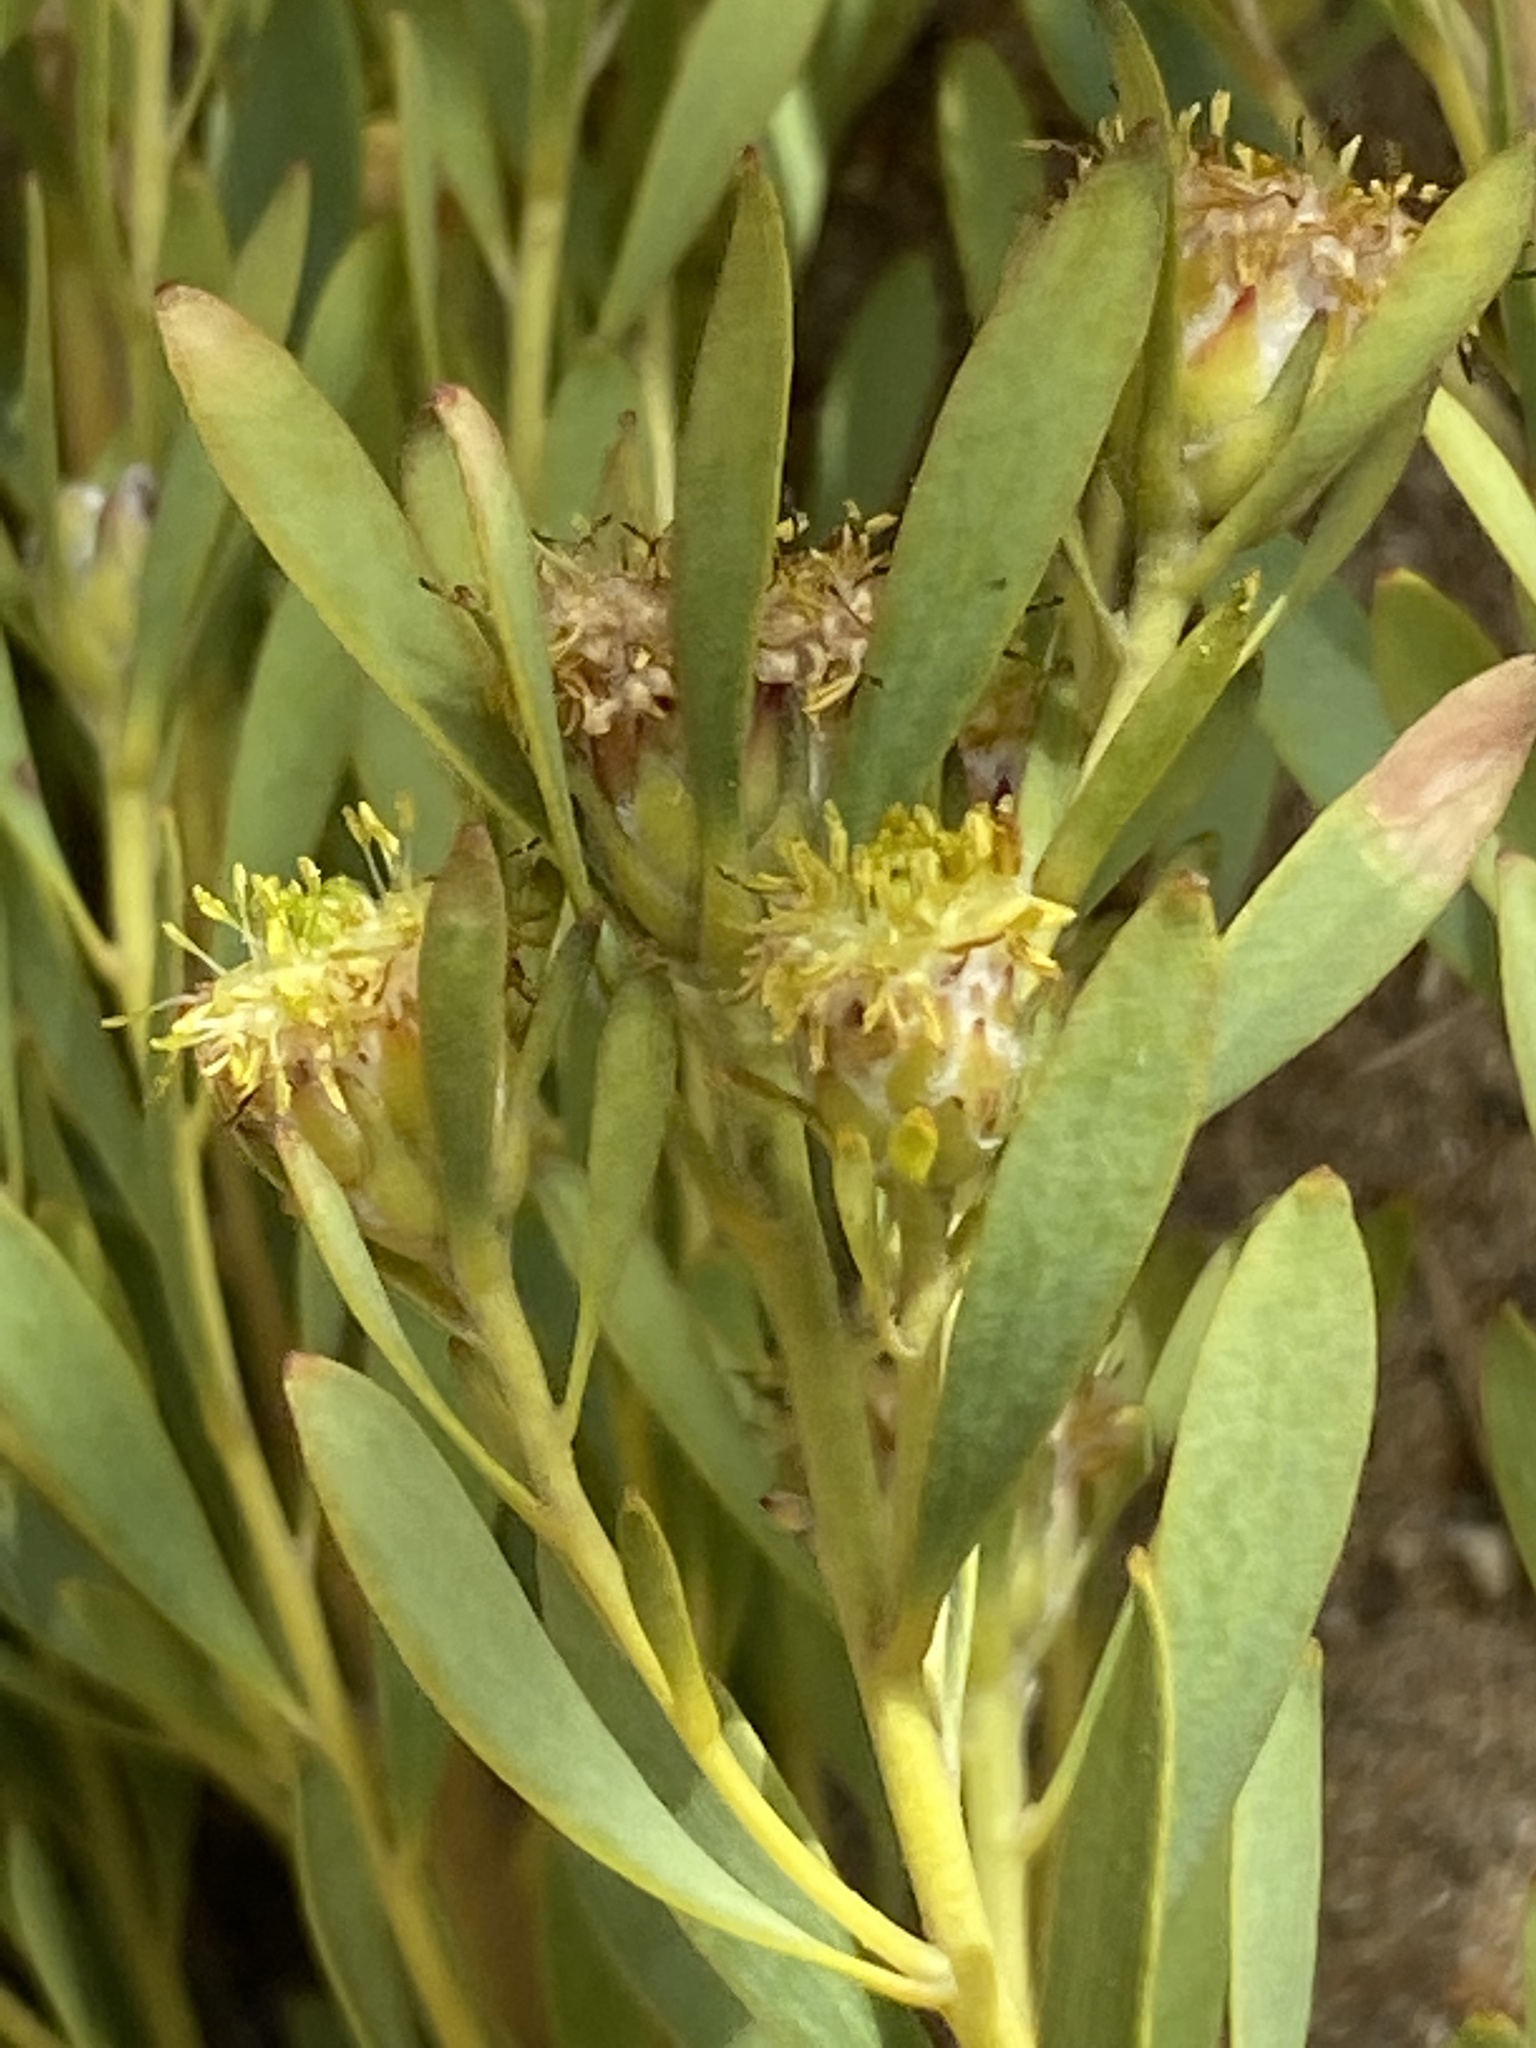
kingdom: Plantae
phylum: Tracheophyta
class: Magnoliopsida
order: Proteales
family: Proteaceae
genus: Leucadendron
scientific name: Leucadendron pubescens
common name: Grey conebush
